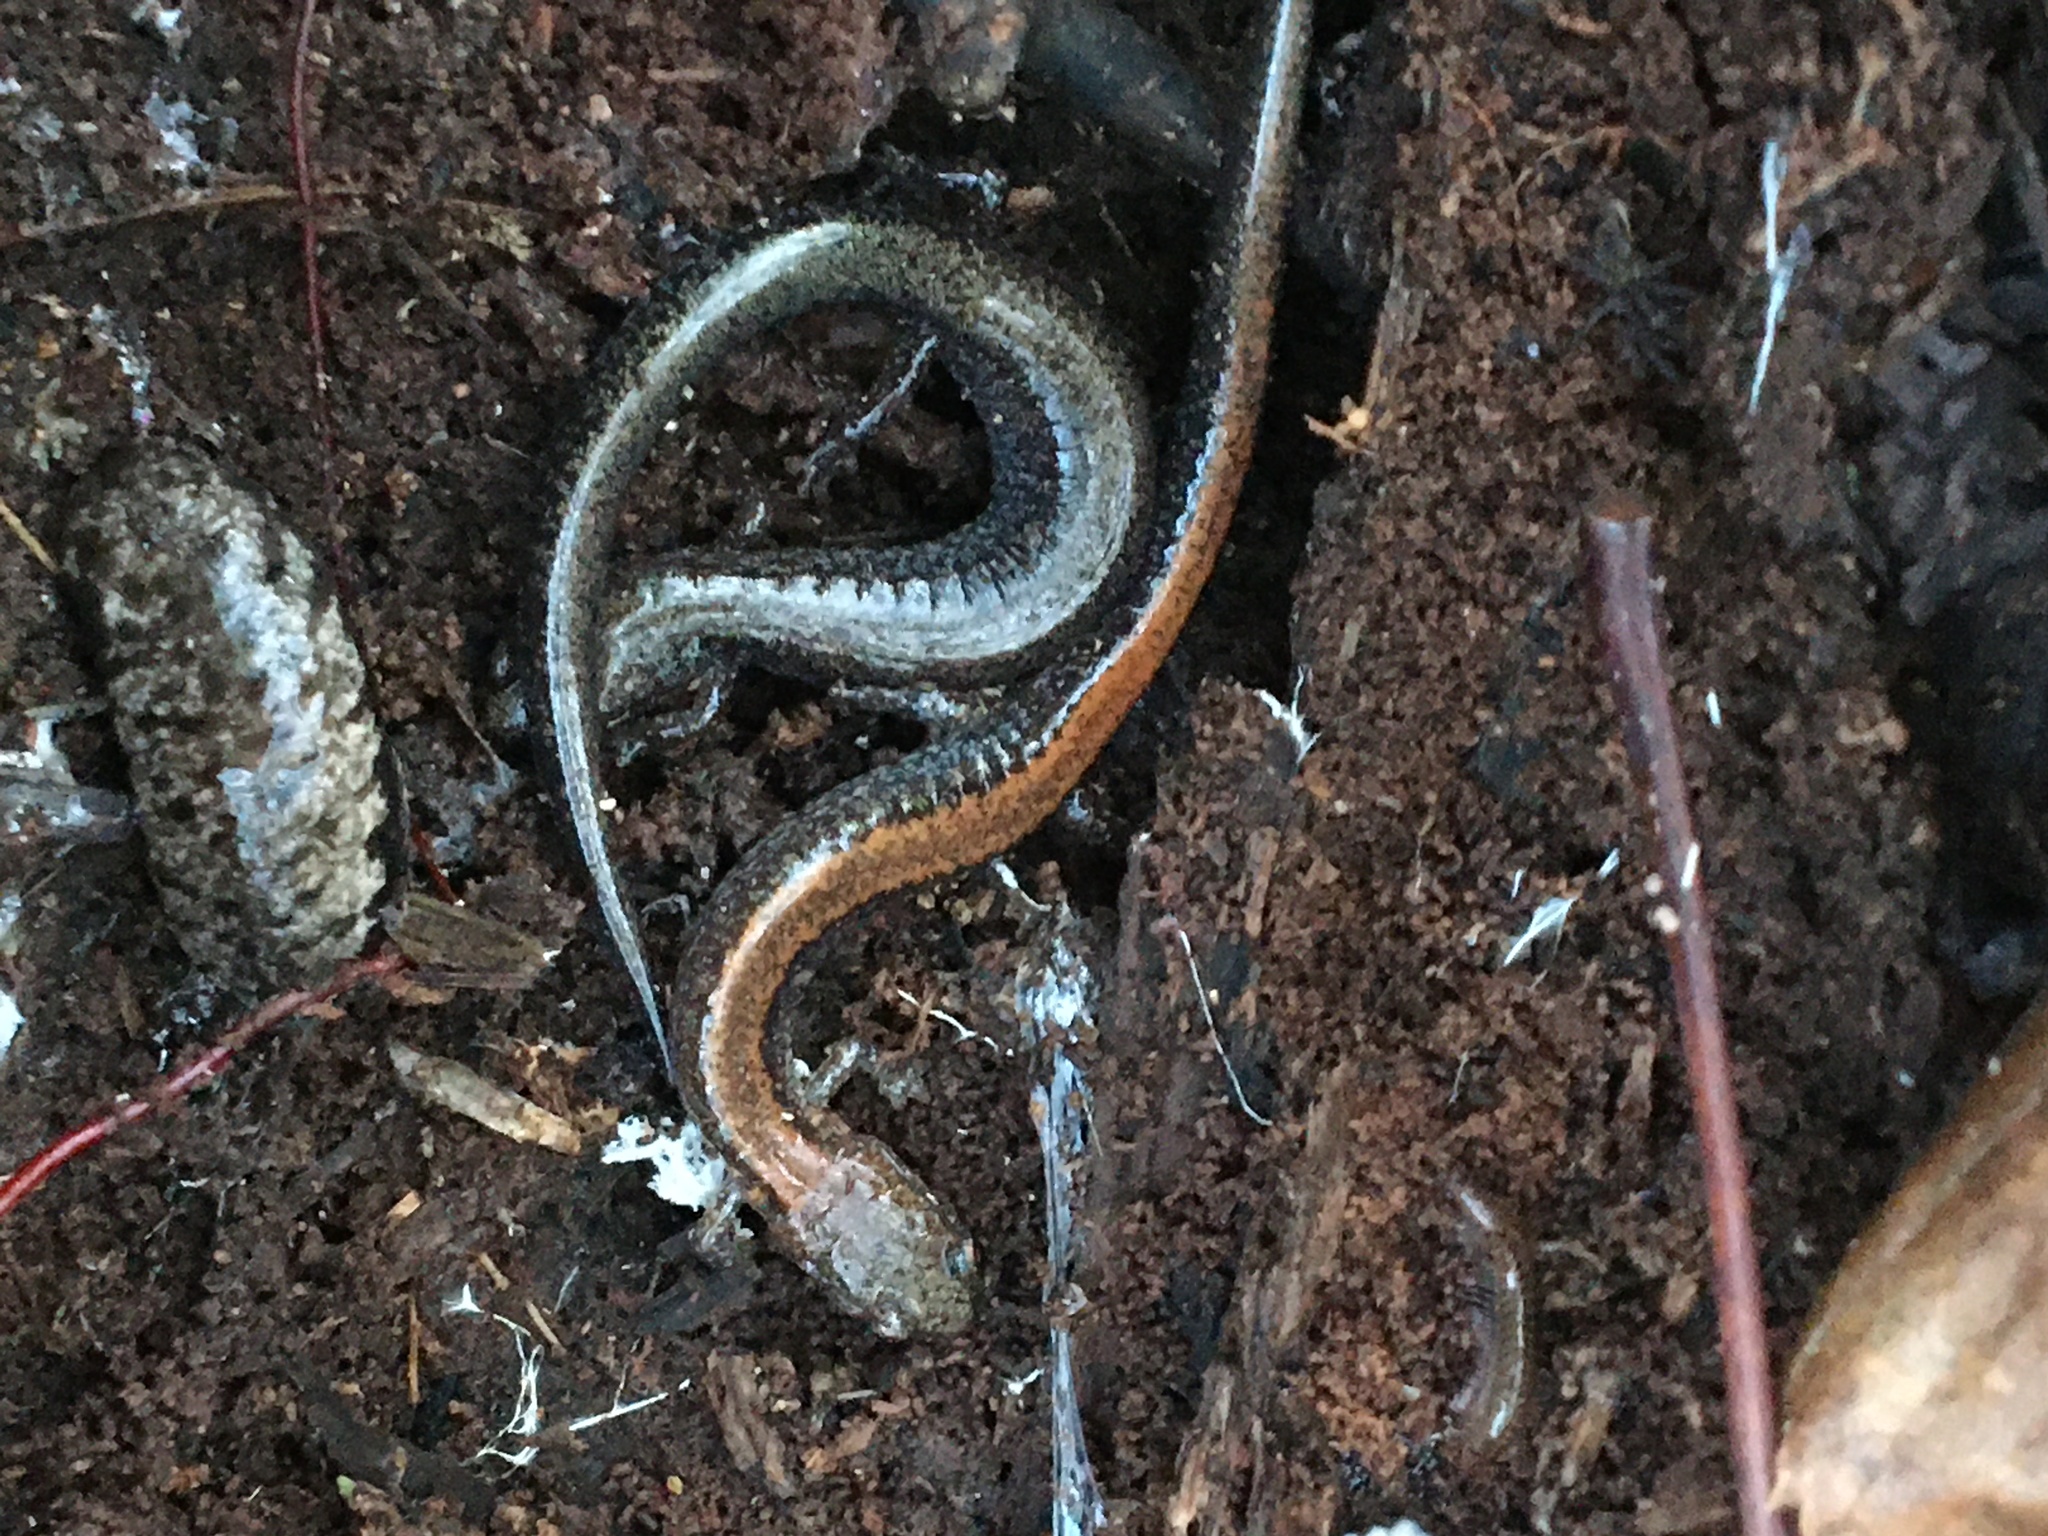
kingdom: Animalia
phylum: Chordata
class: Amphibia
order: Caudata
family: Plethodontidae
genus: Plethodon
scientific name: Plethodon cinereus
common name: Redback salamander
